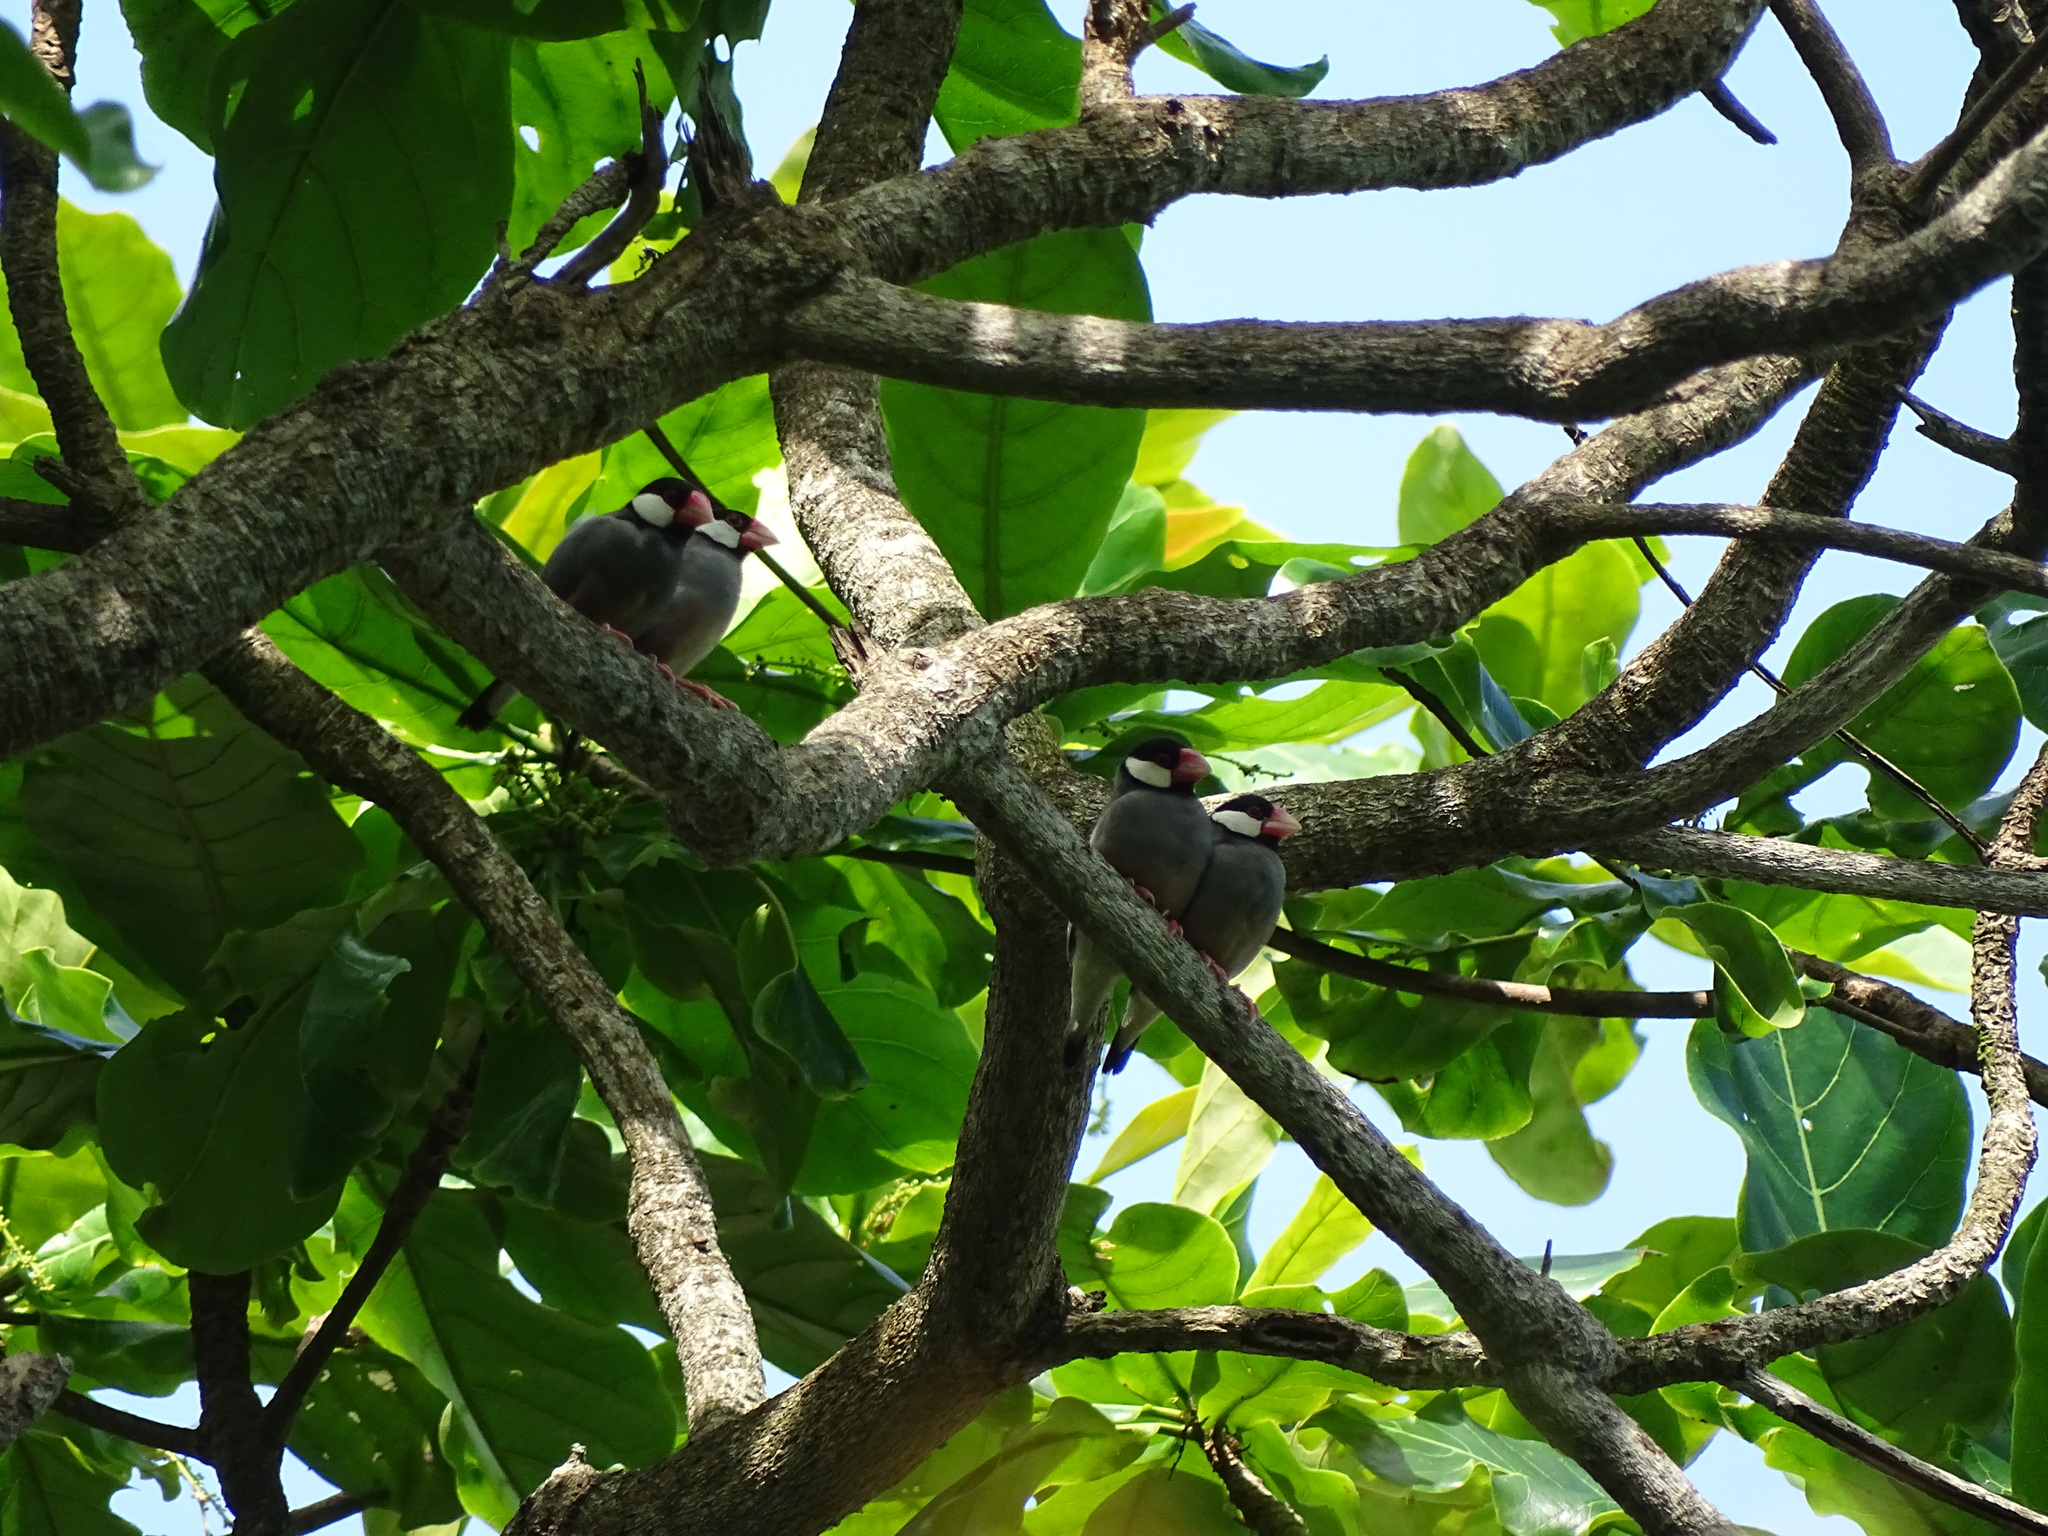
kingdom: Animalia
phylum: Chordata
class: Aves
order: Passeriformes
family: Estrildidae
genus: Lonchura
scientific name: Lonchura oryzivora
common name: Java sparrow
